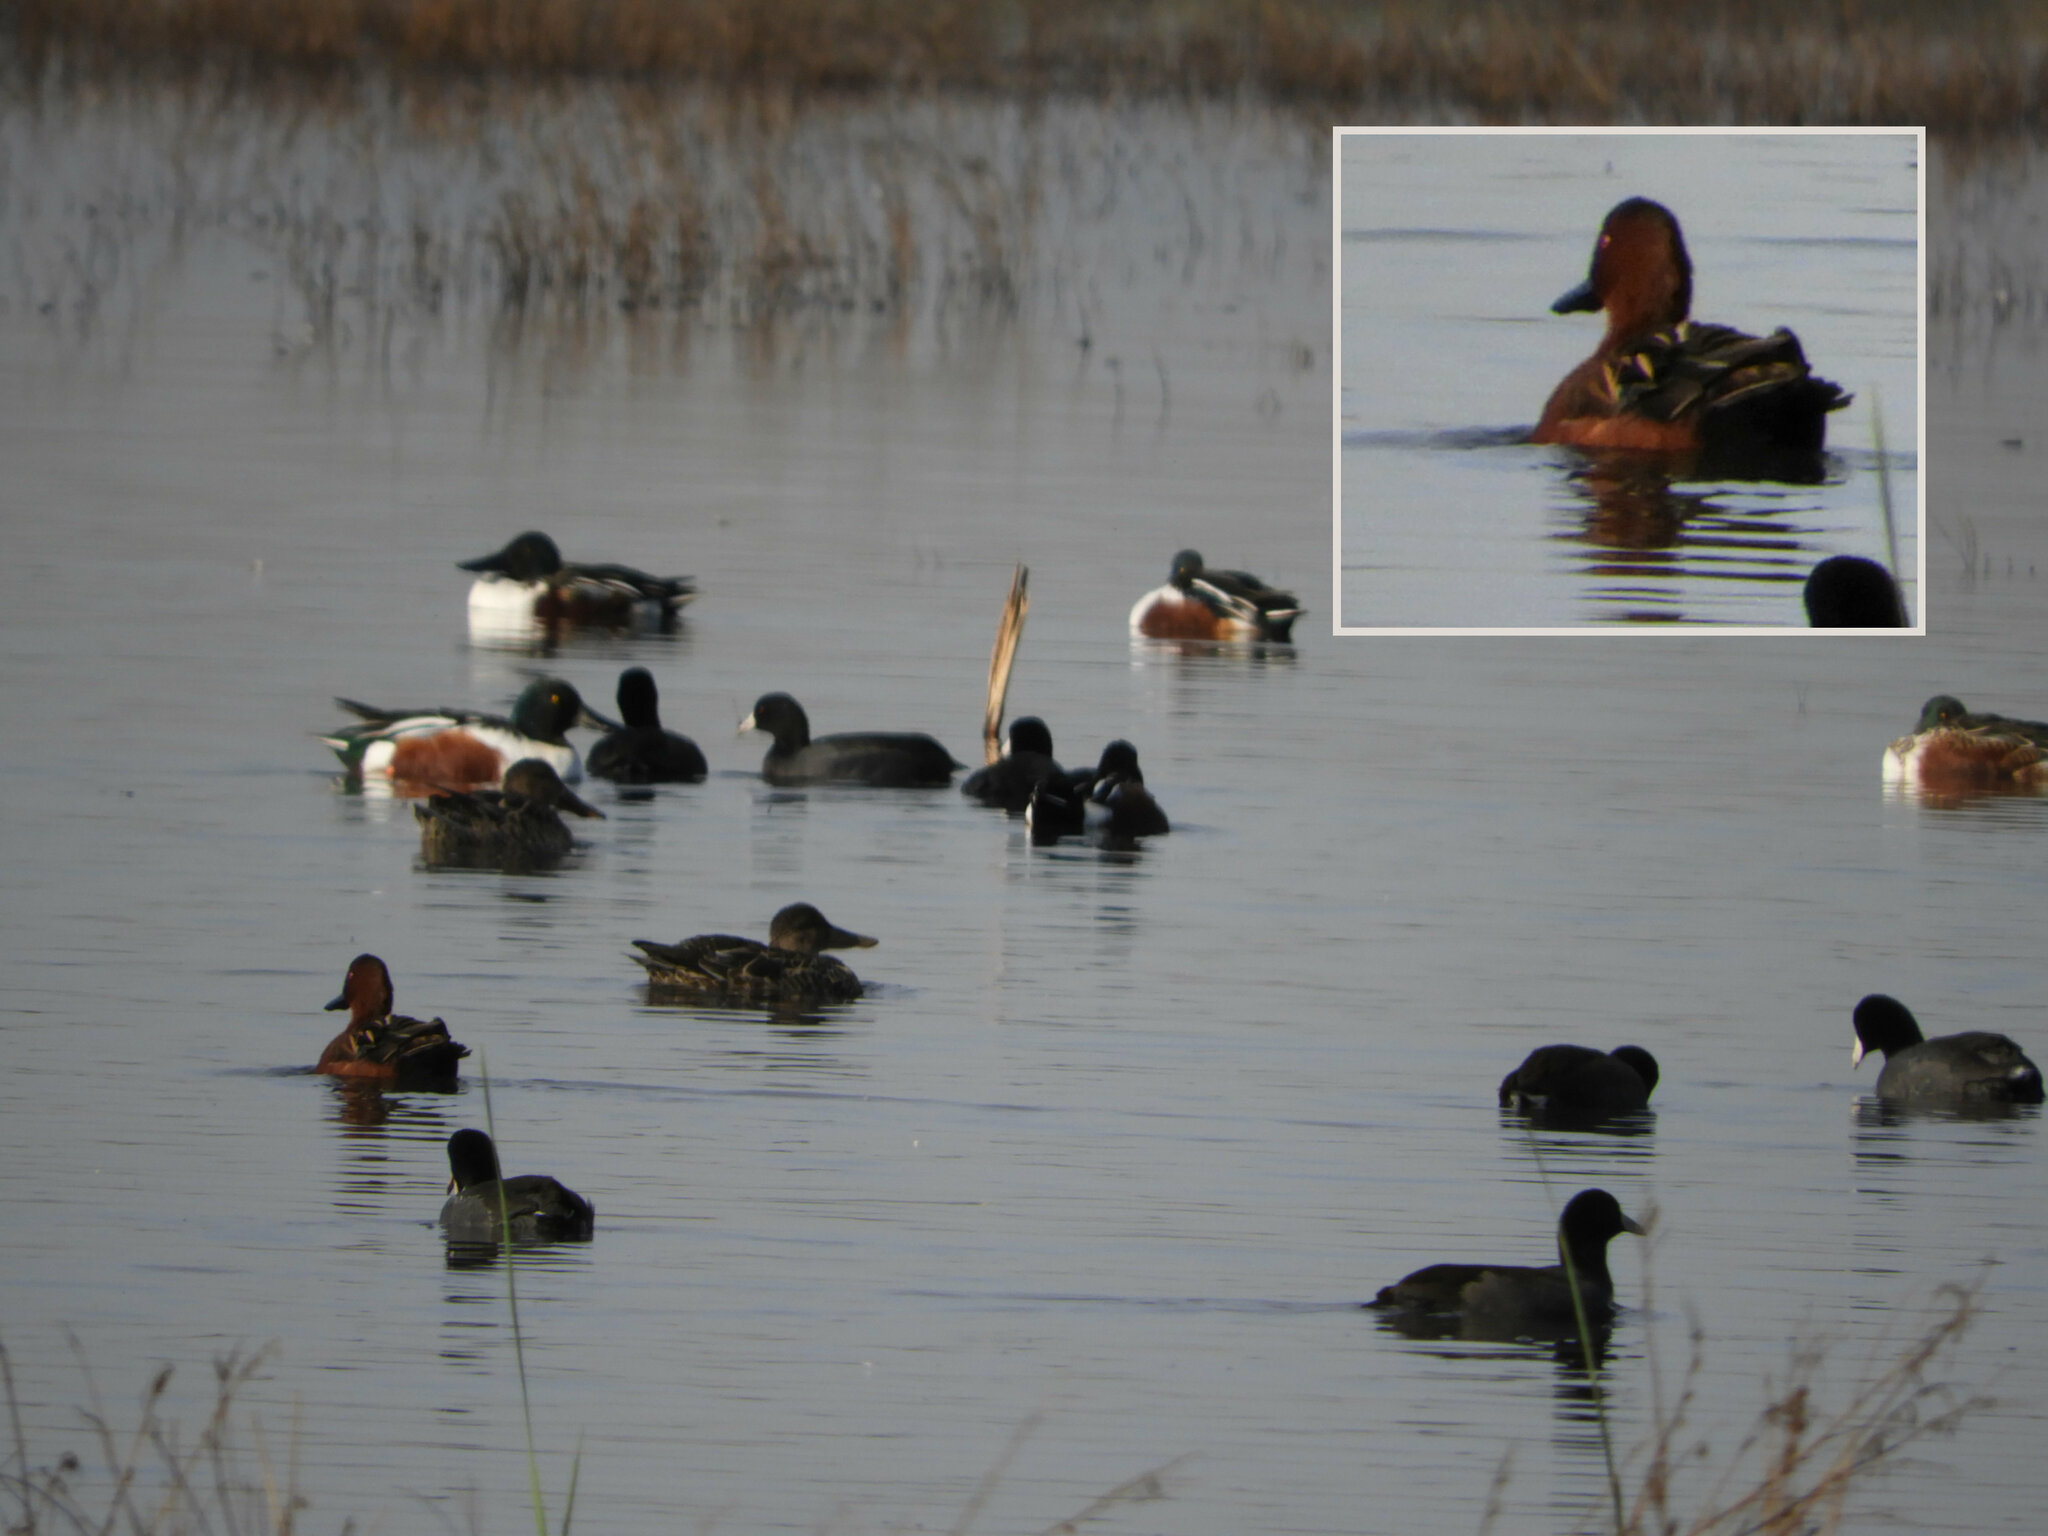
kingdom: Animalia
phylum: Chordata
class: Aves
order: Anseriformes
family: Anatidae
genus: Spatula
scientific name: Spatula cyanoptera
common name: Cinnamon teal
